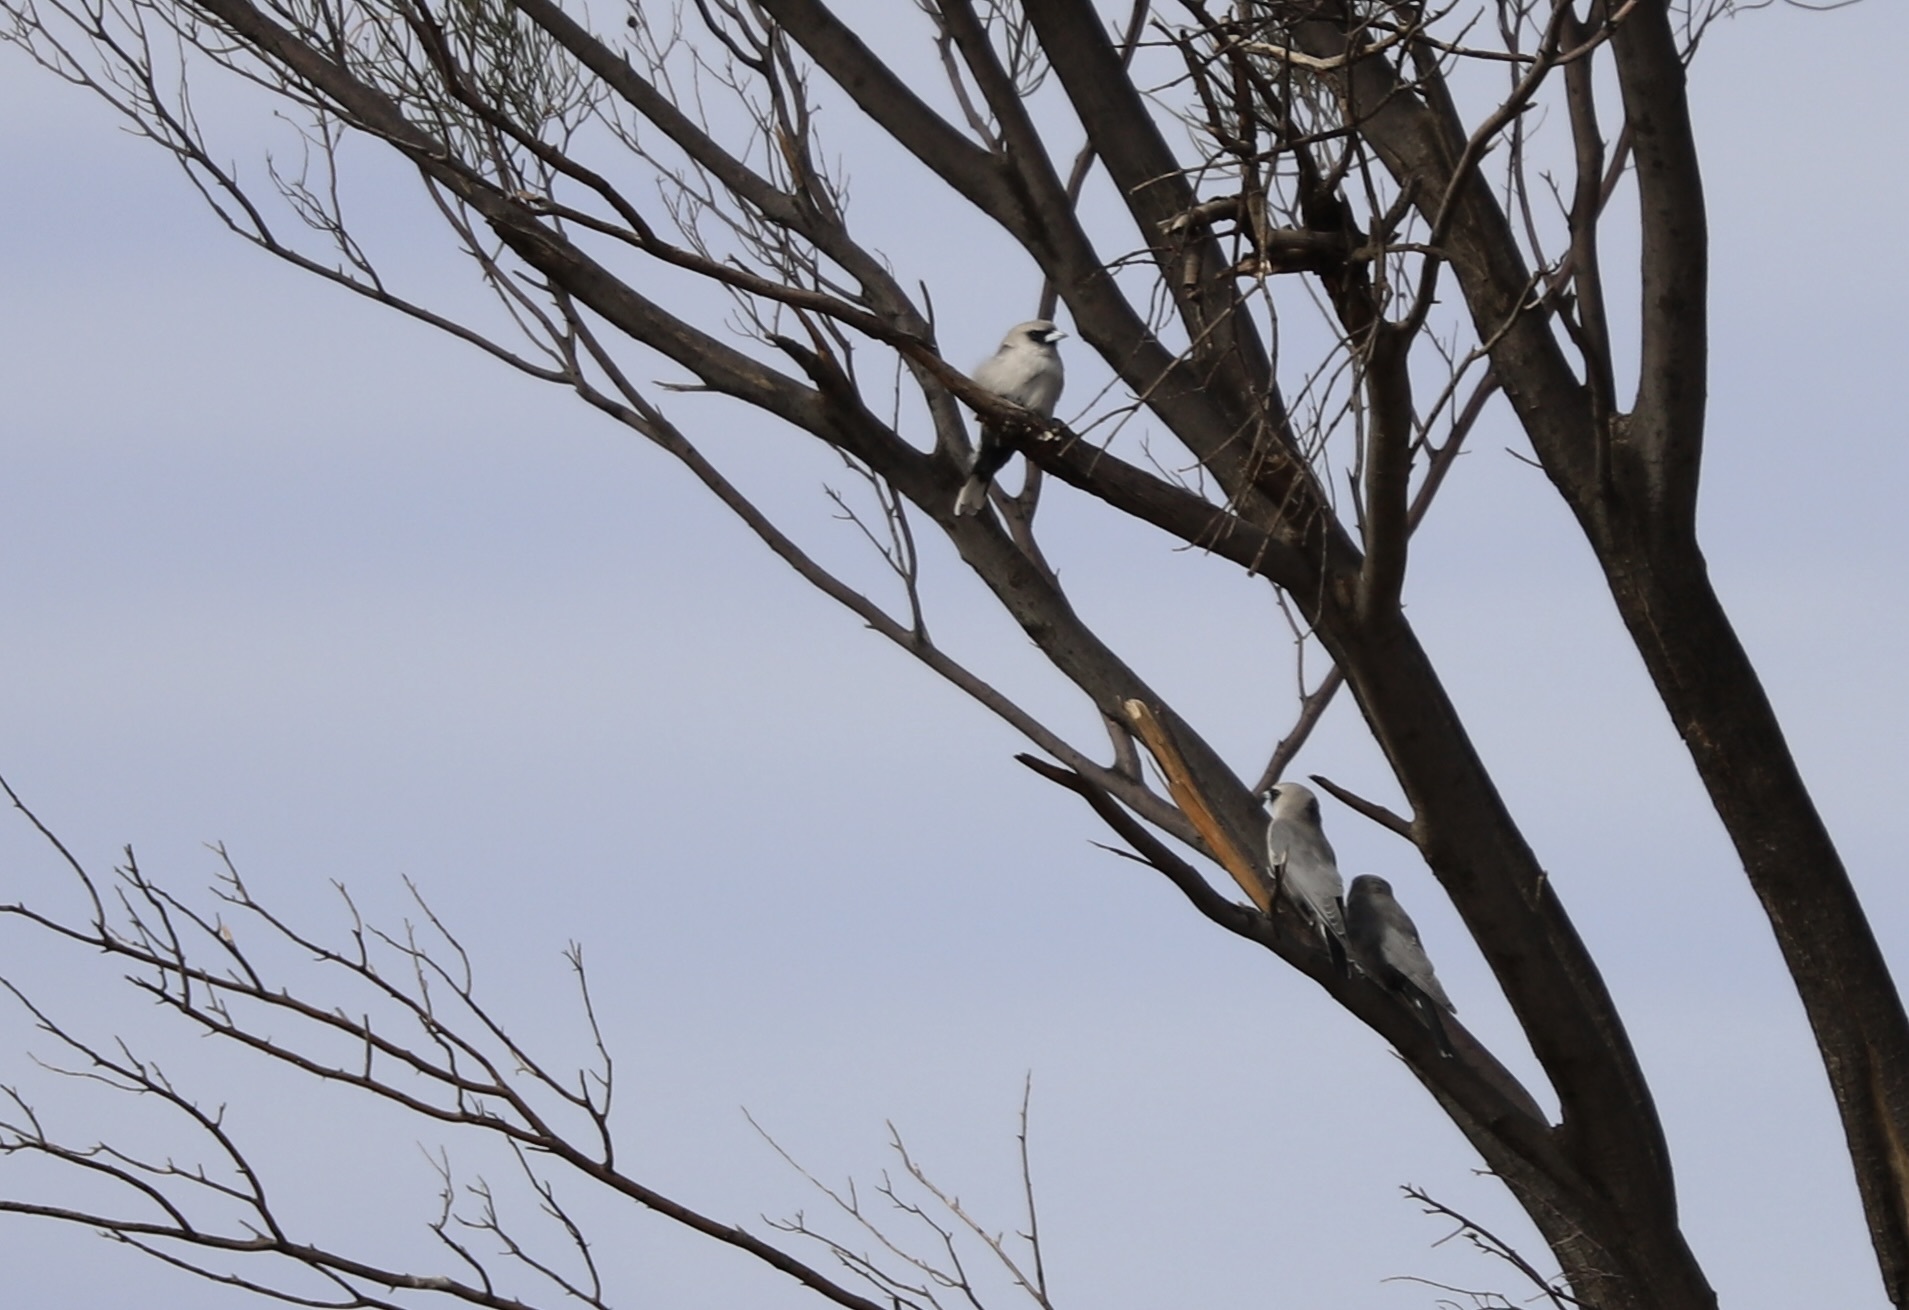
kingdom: Animalia
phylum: Chordata
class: Aves
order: Passeriformes
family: Artamidae
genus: Artamus
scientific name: Artamus cinereus
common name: Black-faced woodswallow
